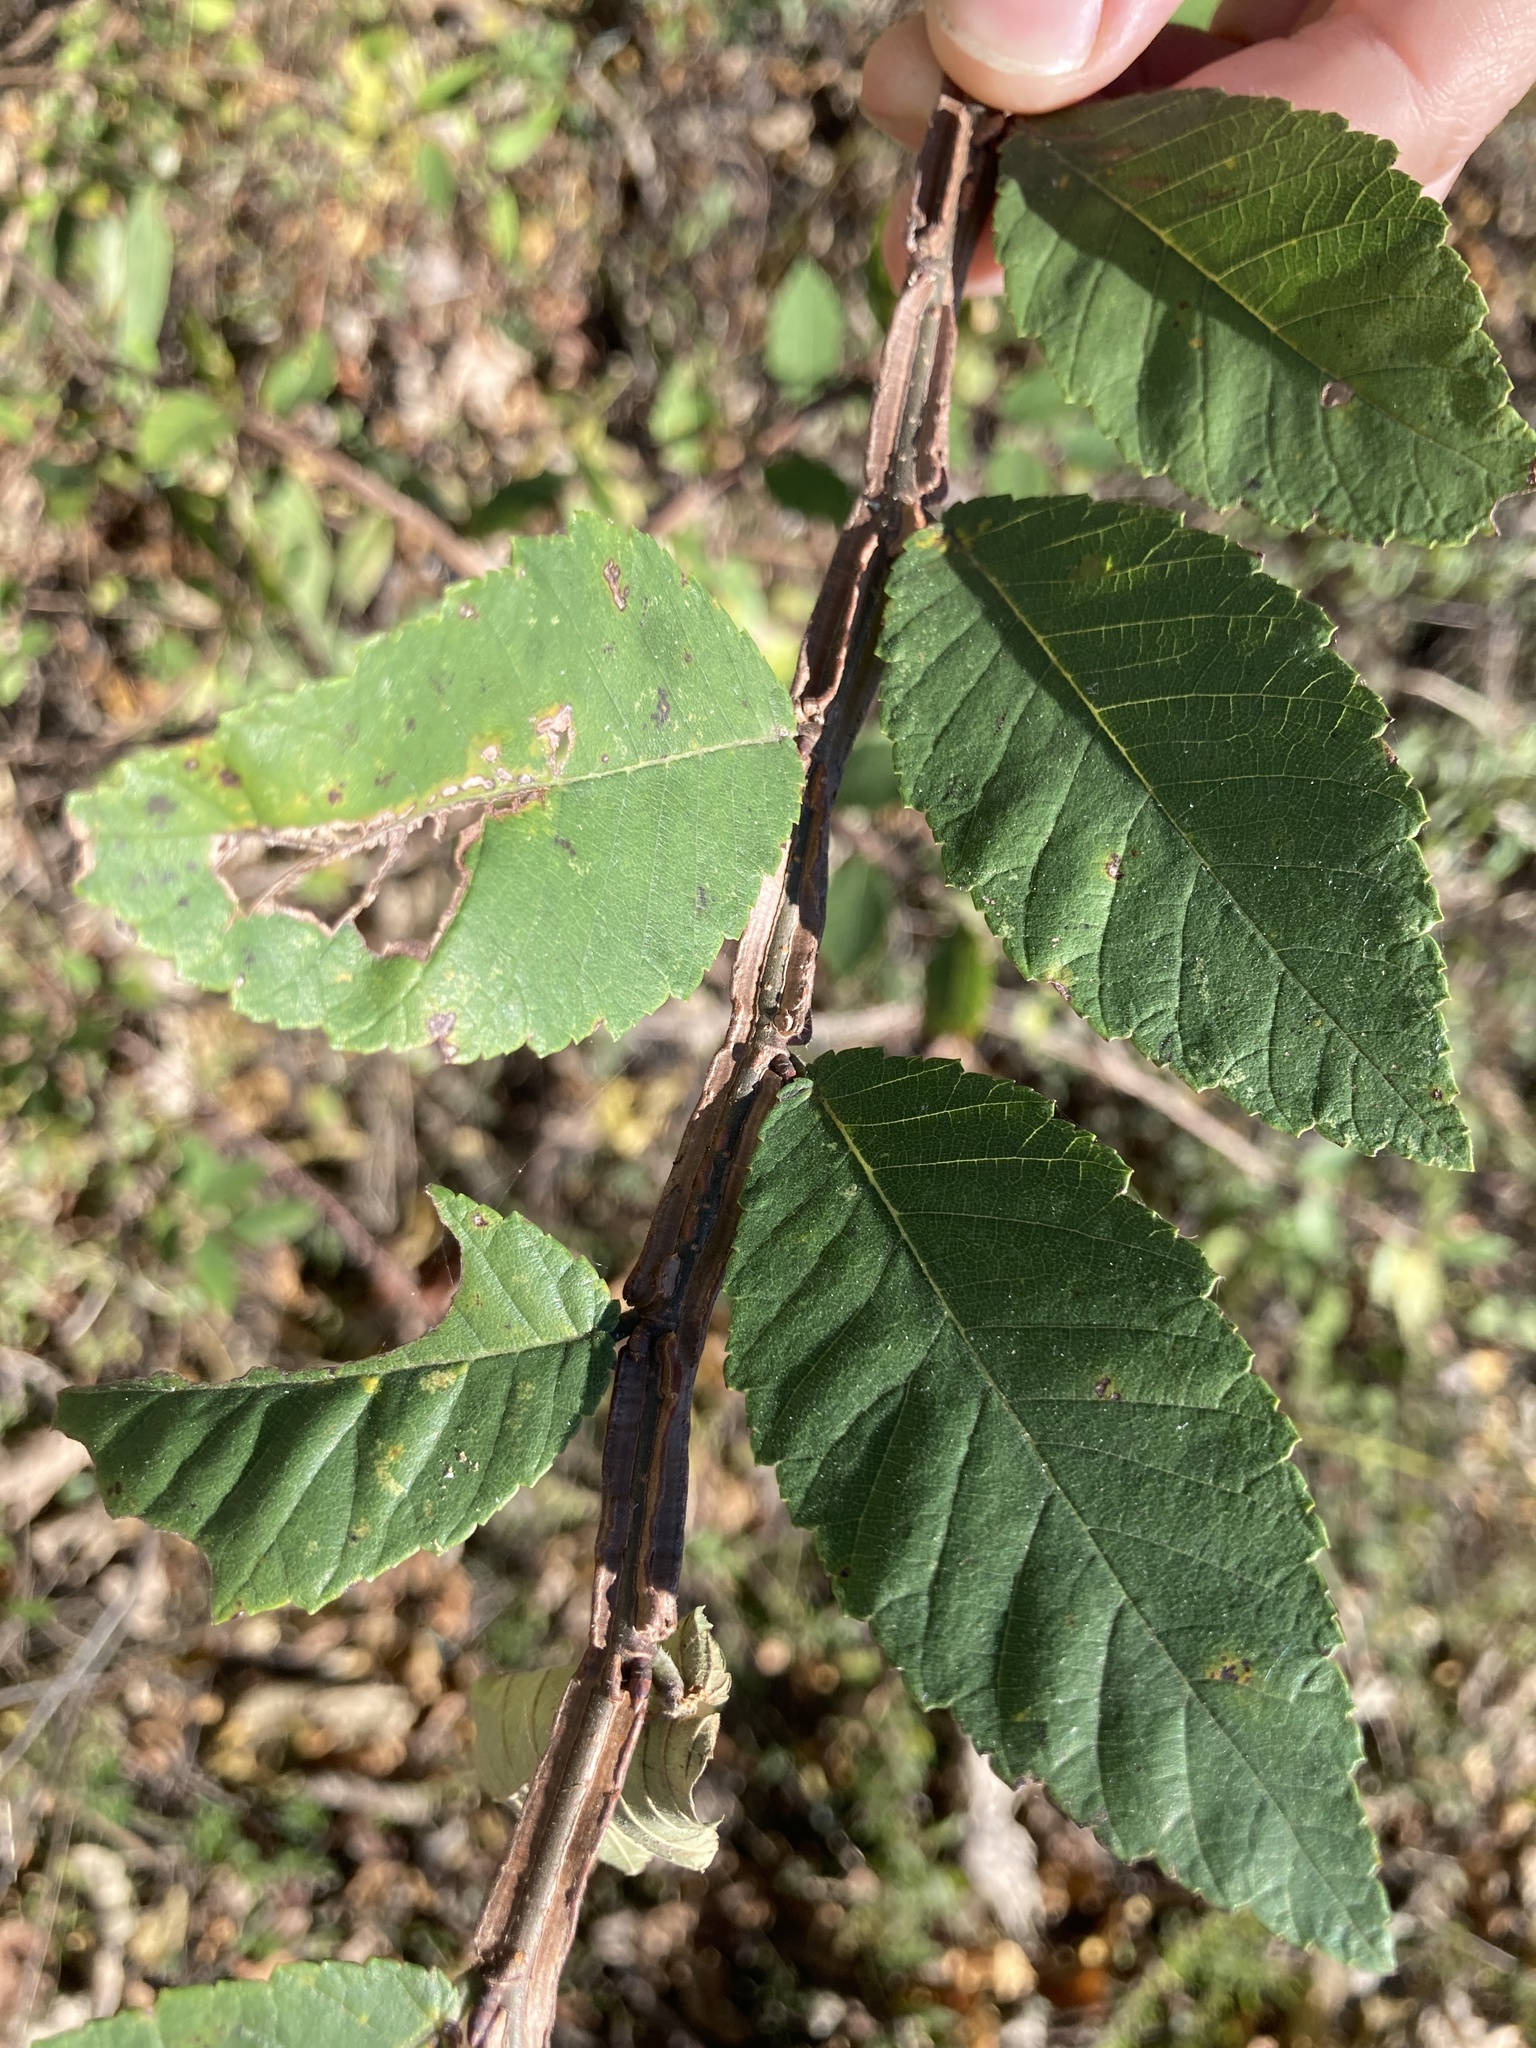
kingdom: Plantae
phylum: Tracheophyta
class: Magnoliopsida
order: Rosales
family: Ulmaceae
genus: Ulmus
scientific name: Ulmus alata
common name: Winged elm
